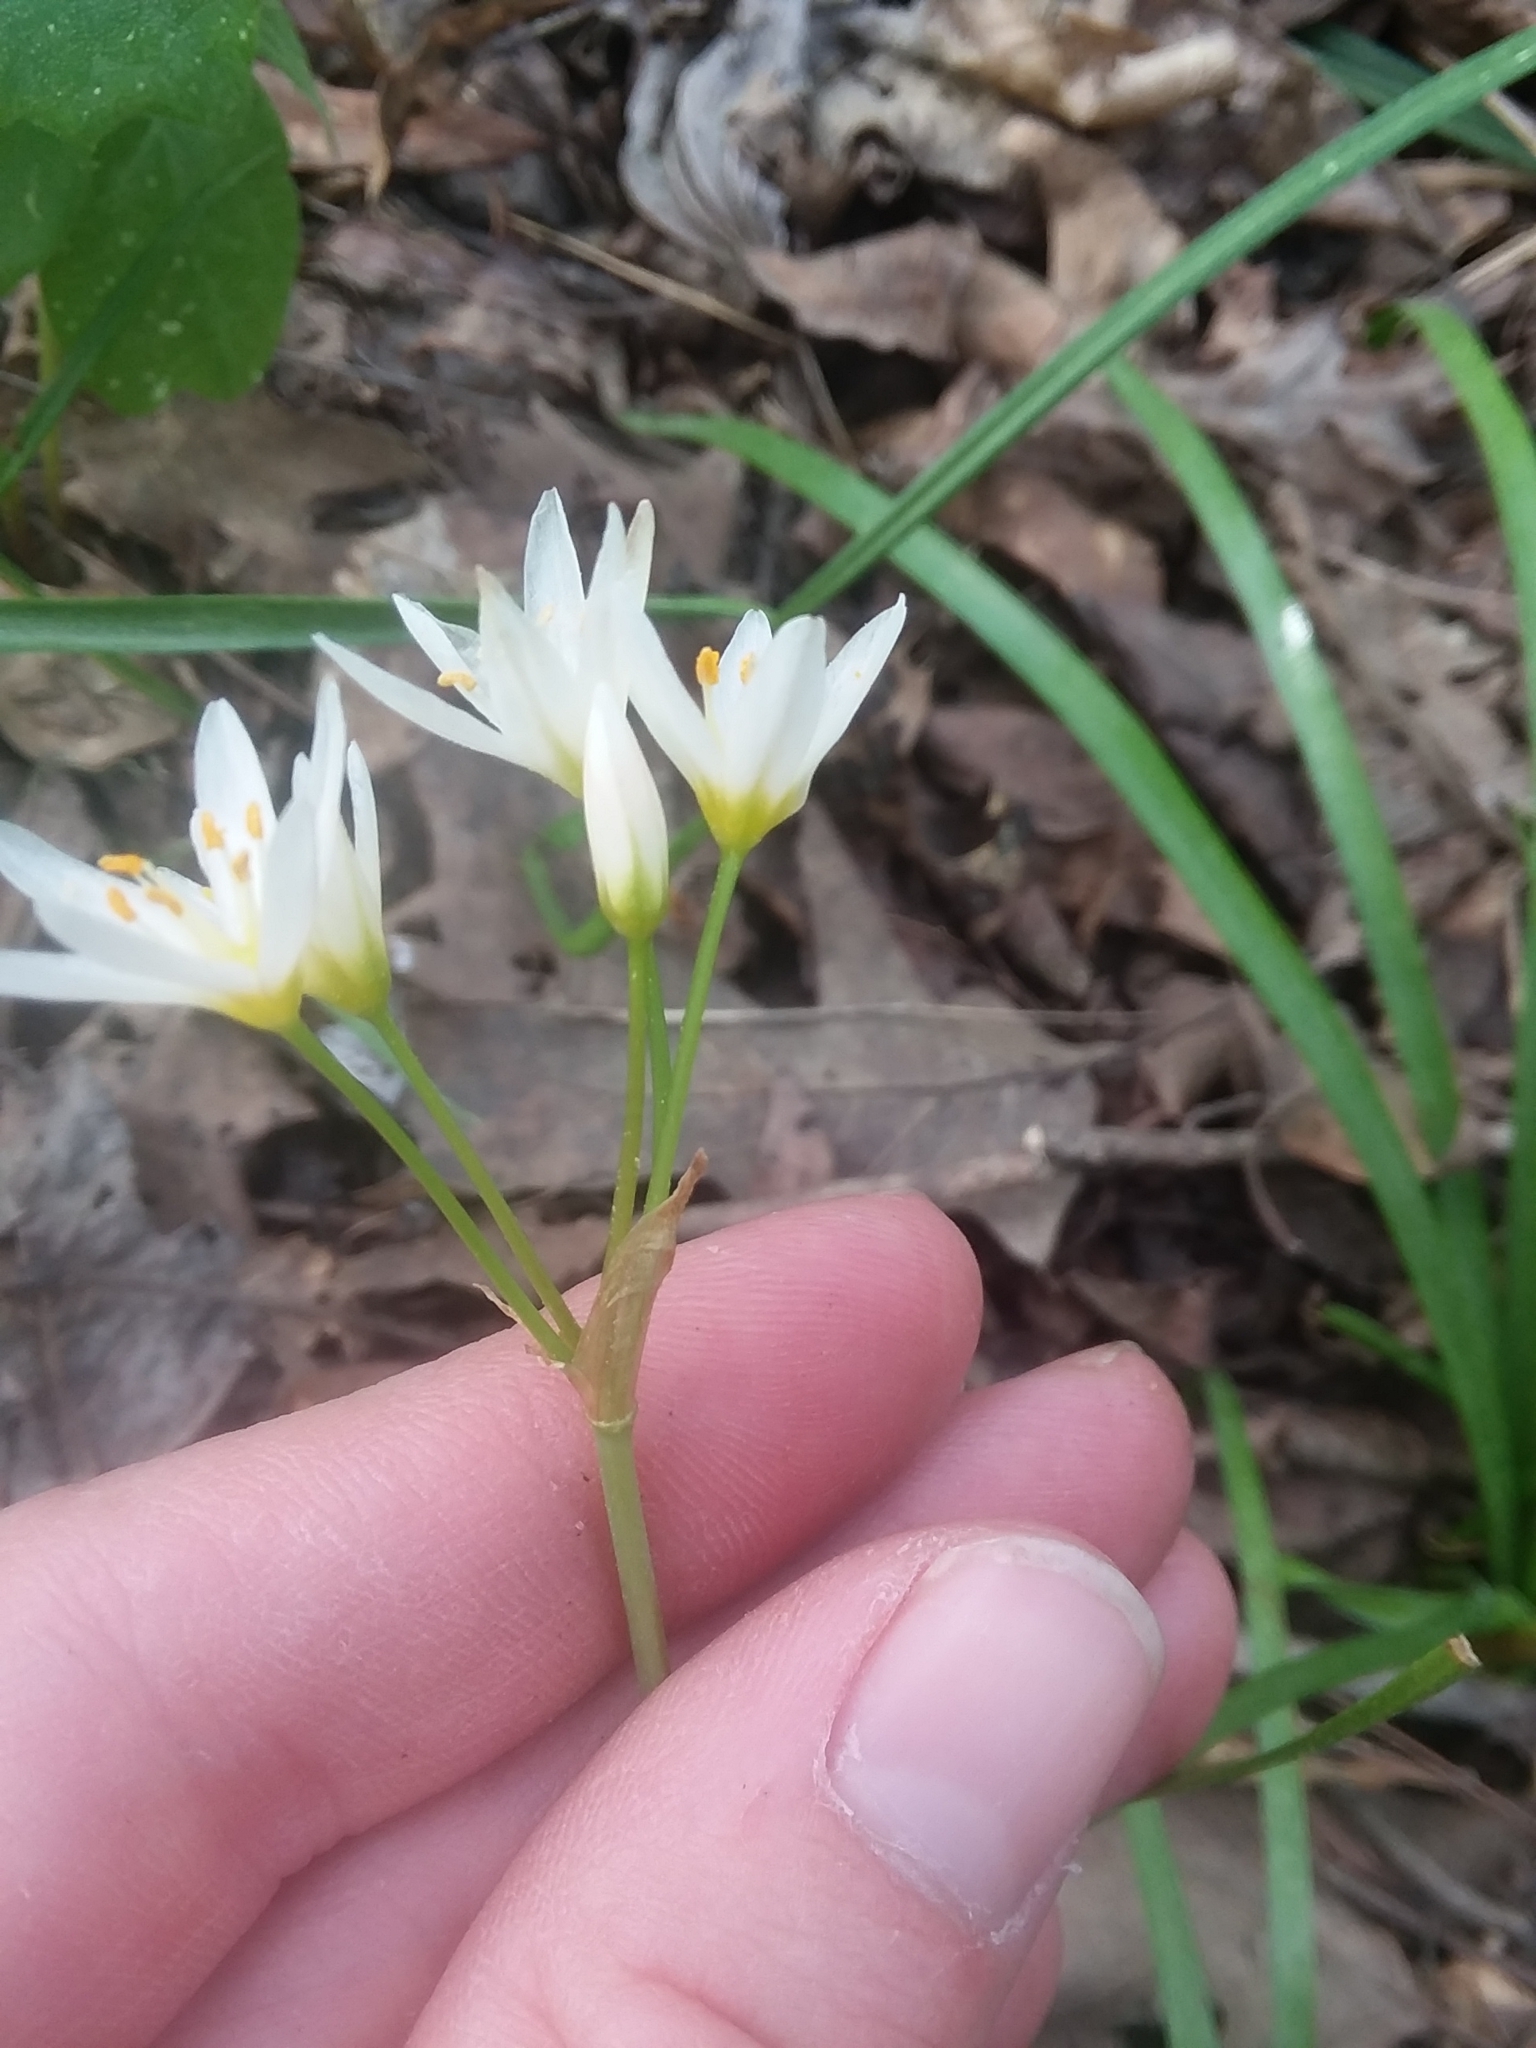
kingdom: Plantae
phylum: Tracheophyta
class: Liliopsida
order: Asparagales
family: Amaryllidaceae
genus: Nothoscordum
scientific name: Nothoscordum bivalve
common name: Crow-poison
